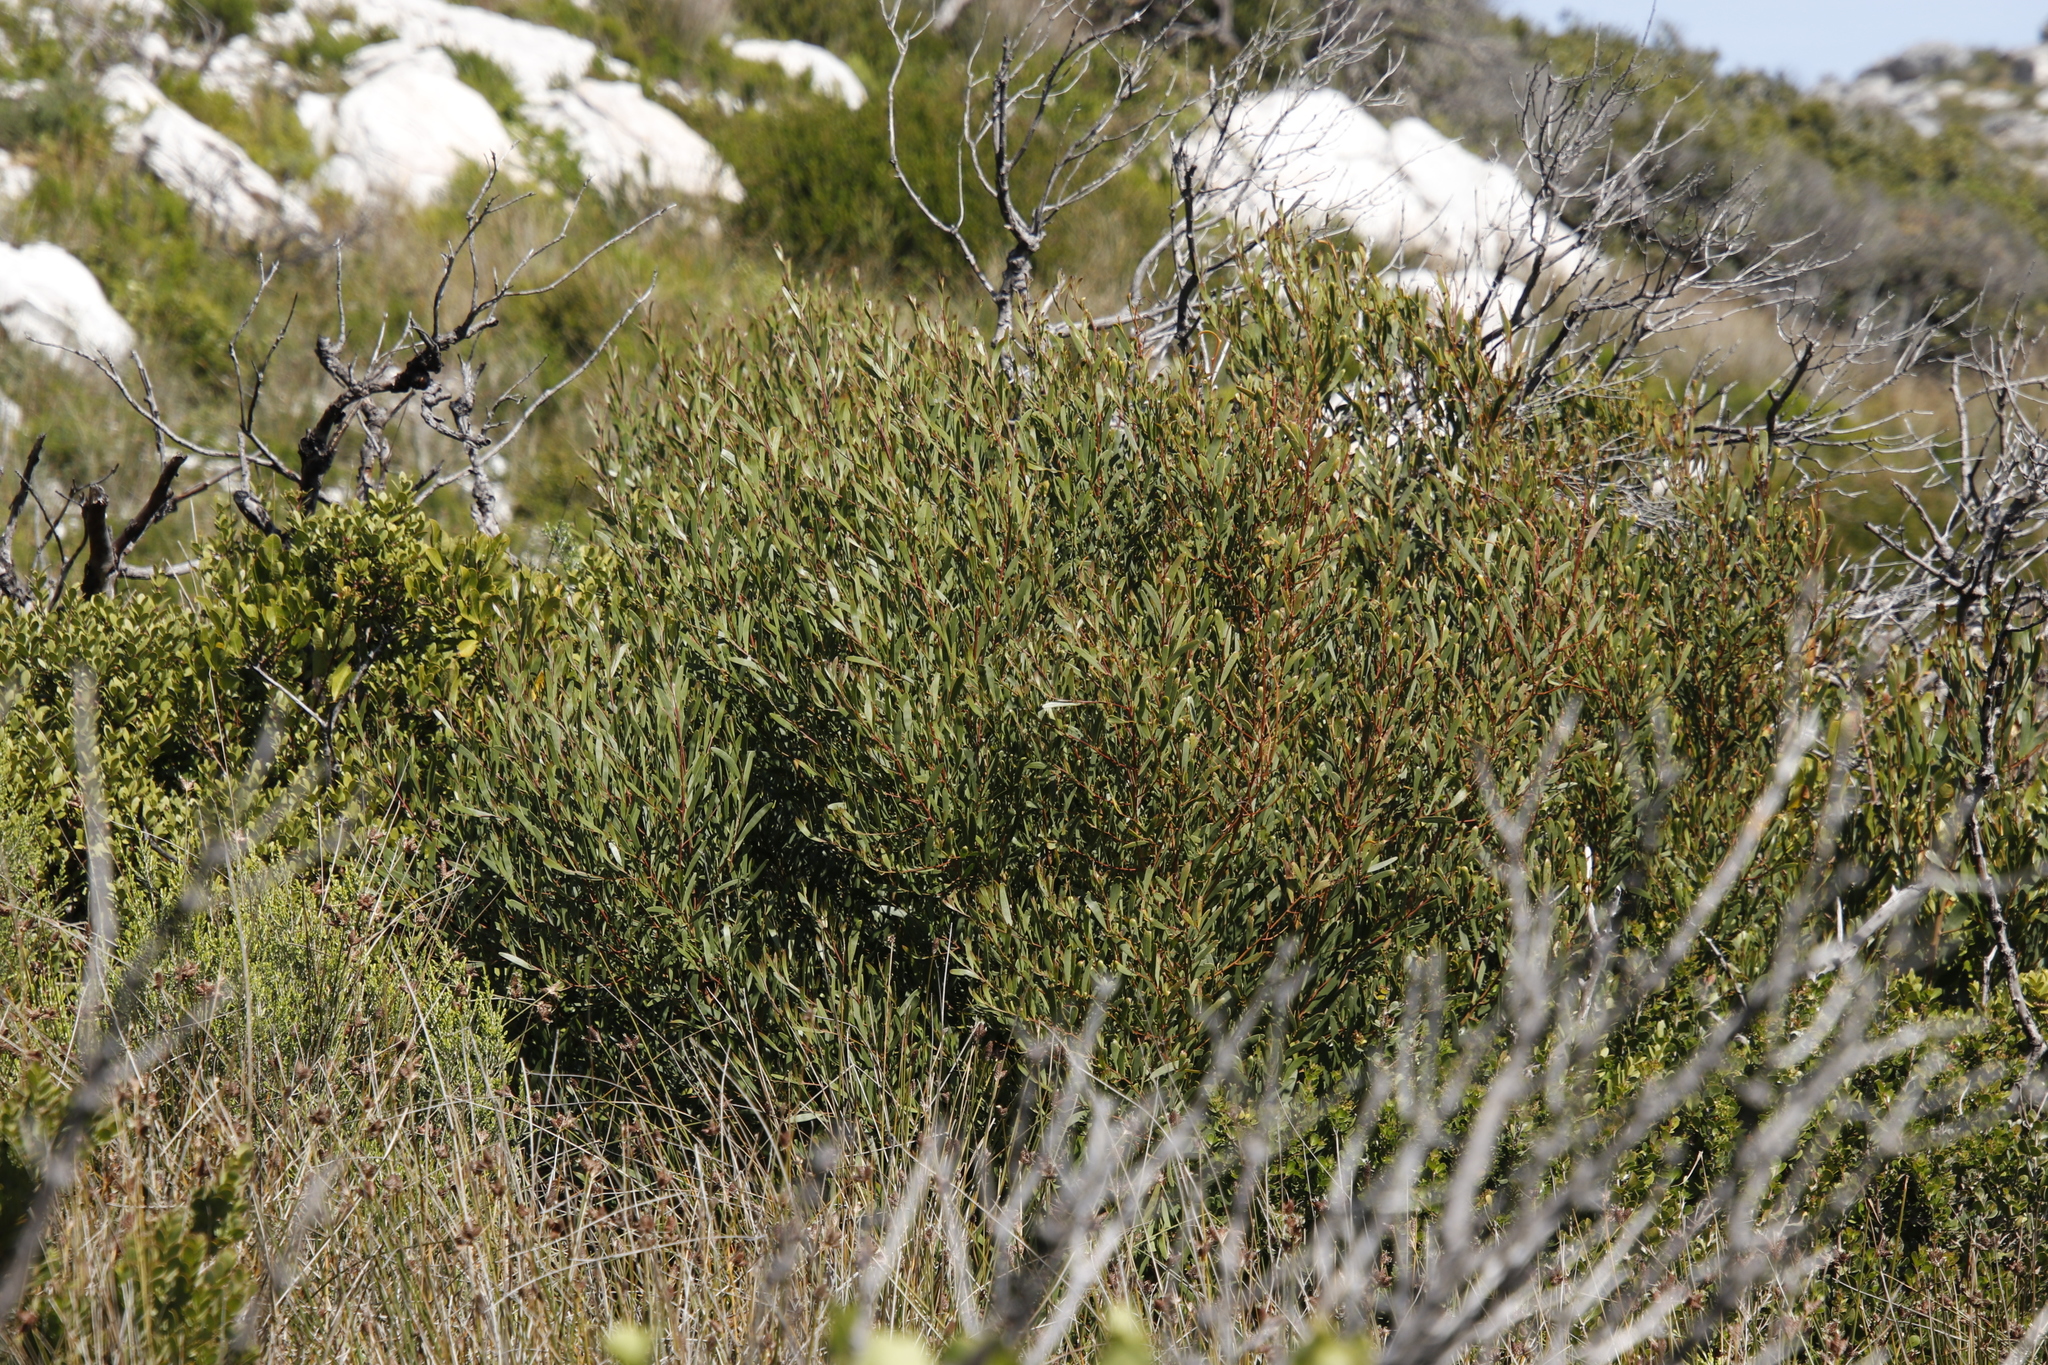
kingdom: Plantae
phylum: Tracheophyta
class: Magnoliopsida
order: Fabales
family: Fabaceae
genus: Acacia
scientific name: Acacia cyclops
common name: Coastal wattle
